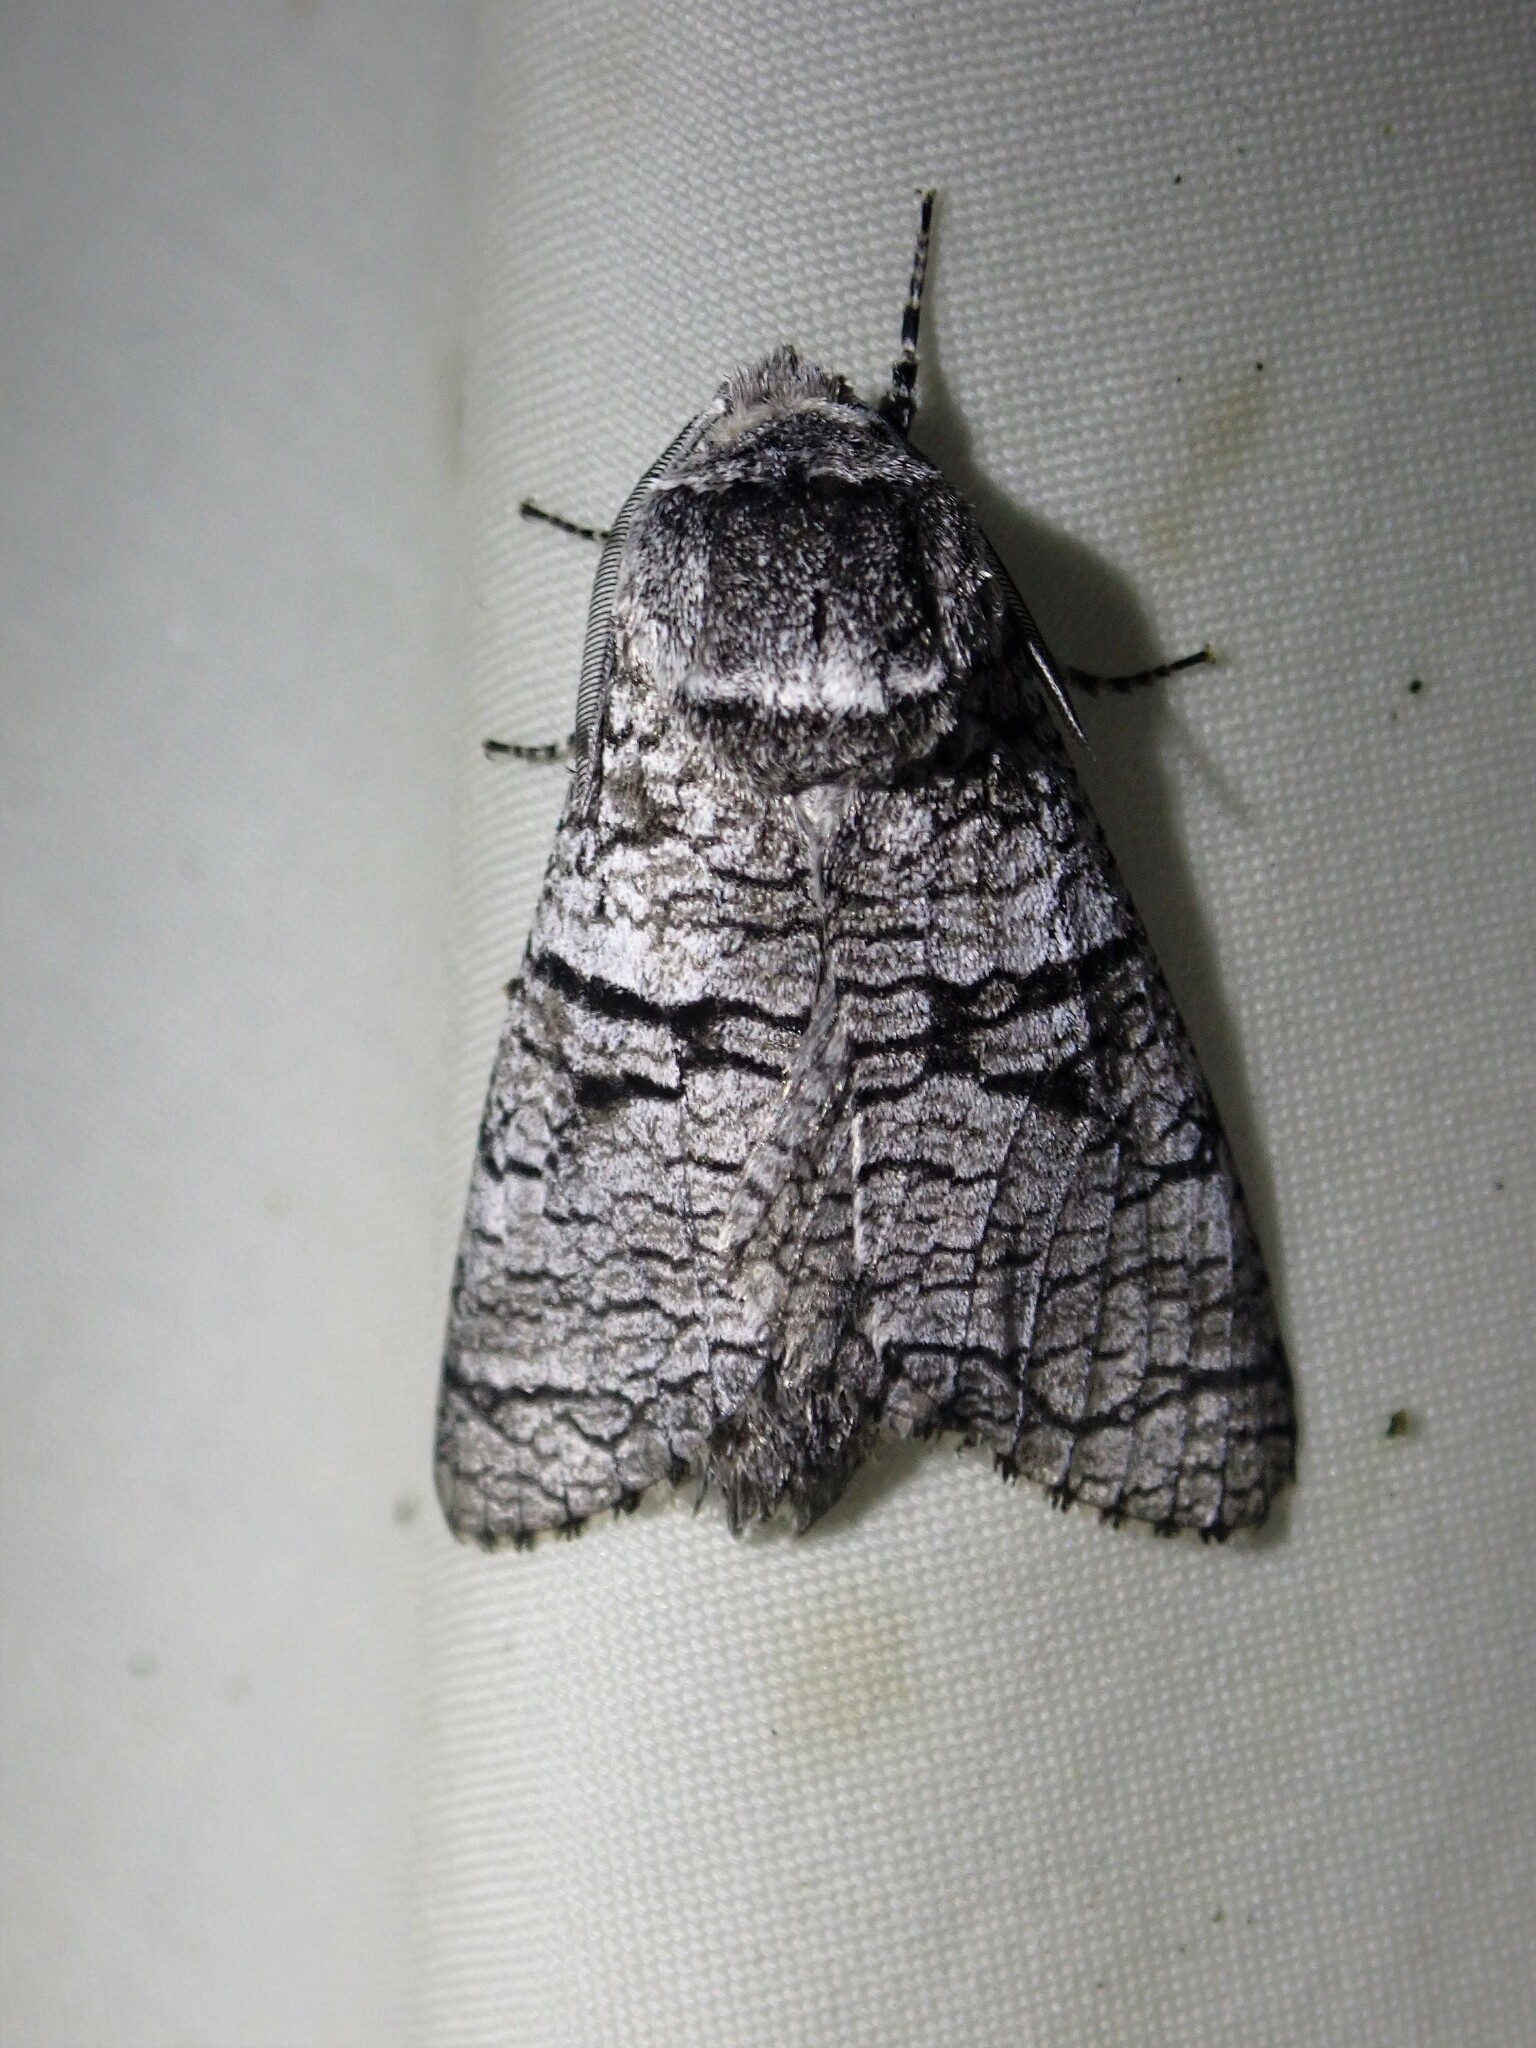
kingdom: Animalia
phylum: Arthropoda
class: Insecta
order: Lepidoptera
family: Cossidae
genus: Acossus
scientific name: Acossus populi
